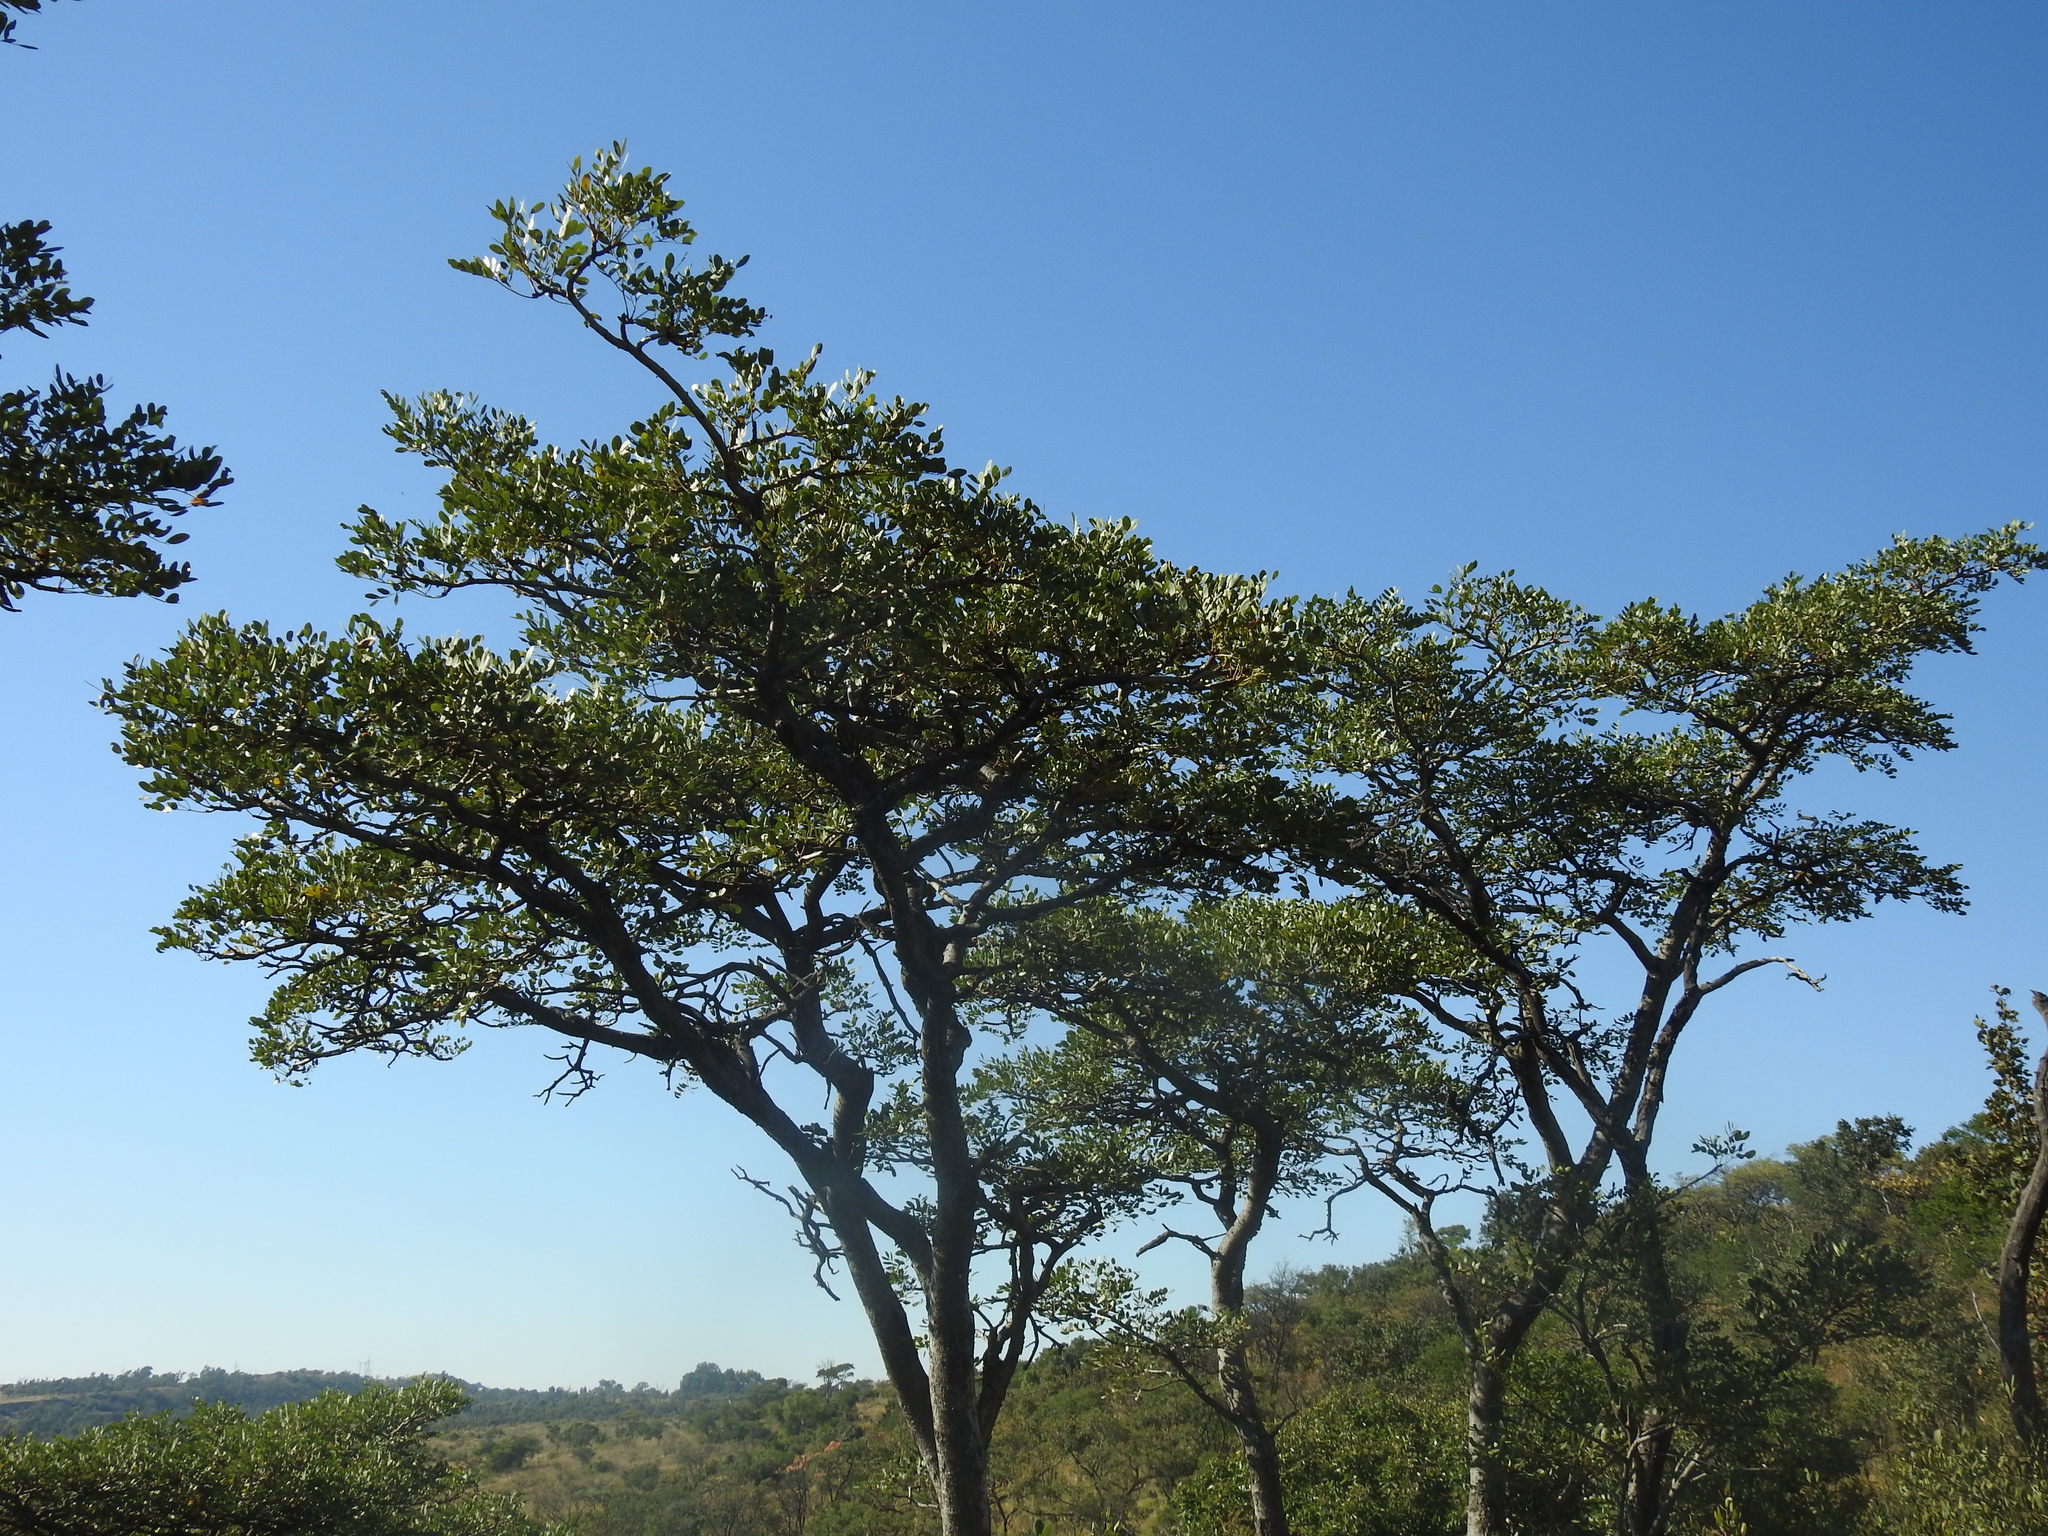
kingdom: Plantae
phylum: Tracheophyta
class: Magnoliopsida
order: Fabales
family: Fabaceae
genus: Burkea
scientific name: Burkea africana
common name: Mkalati tree
